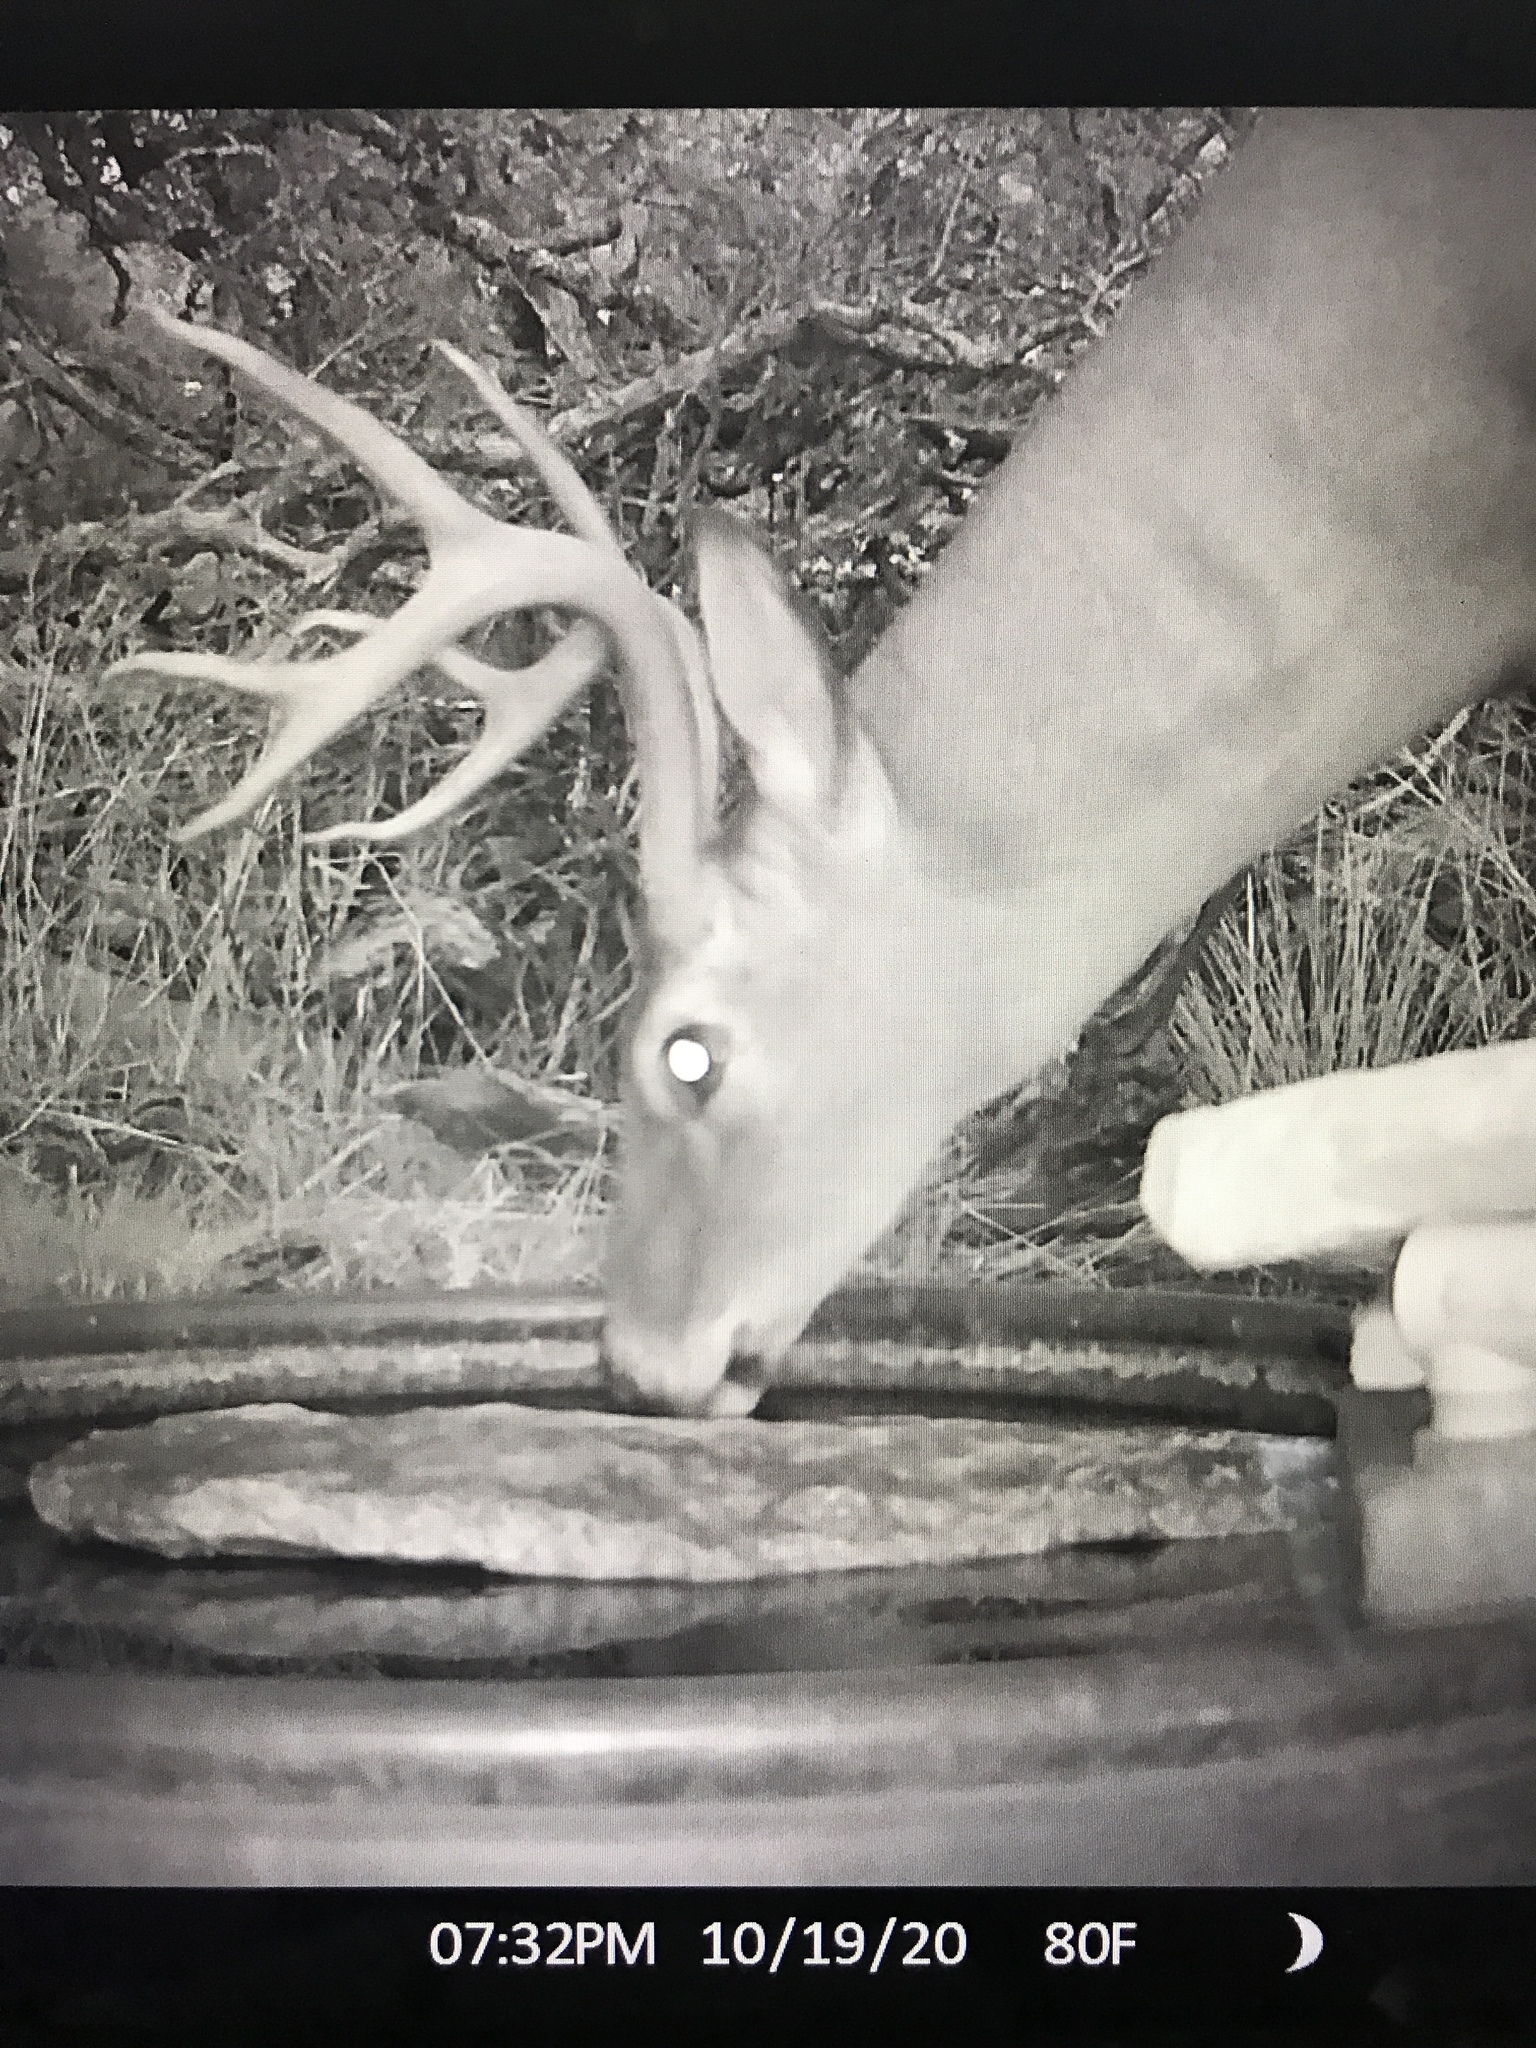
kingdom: Animalia
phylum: Chordata
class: Mammalia
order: Artiodactyla
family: Cervidae
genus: Odocoileus
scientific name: Odocoileus virginianus
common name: White-tailed deer
